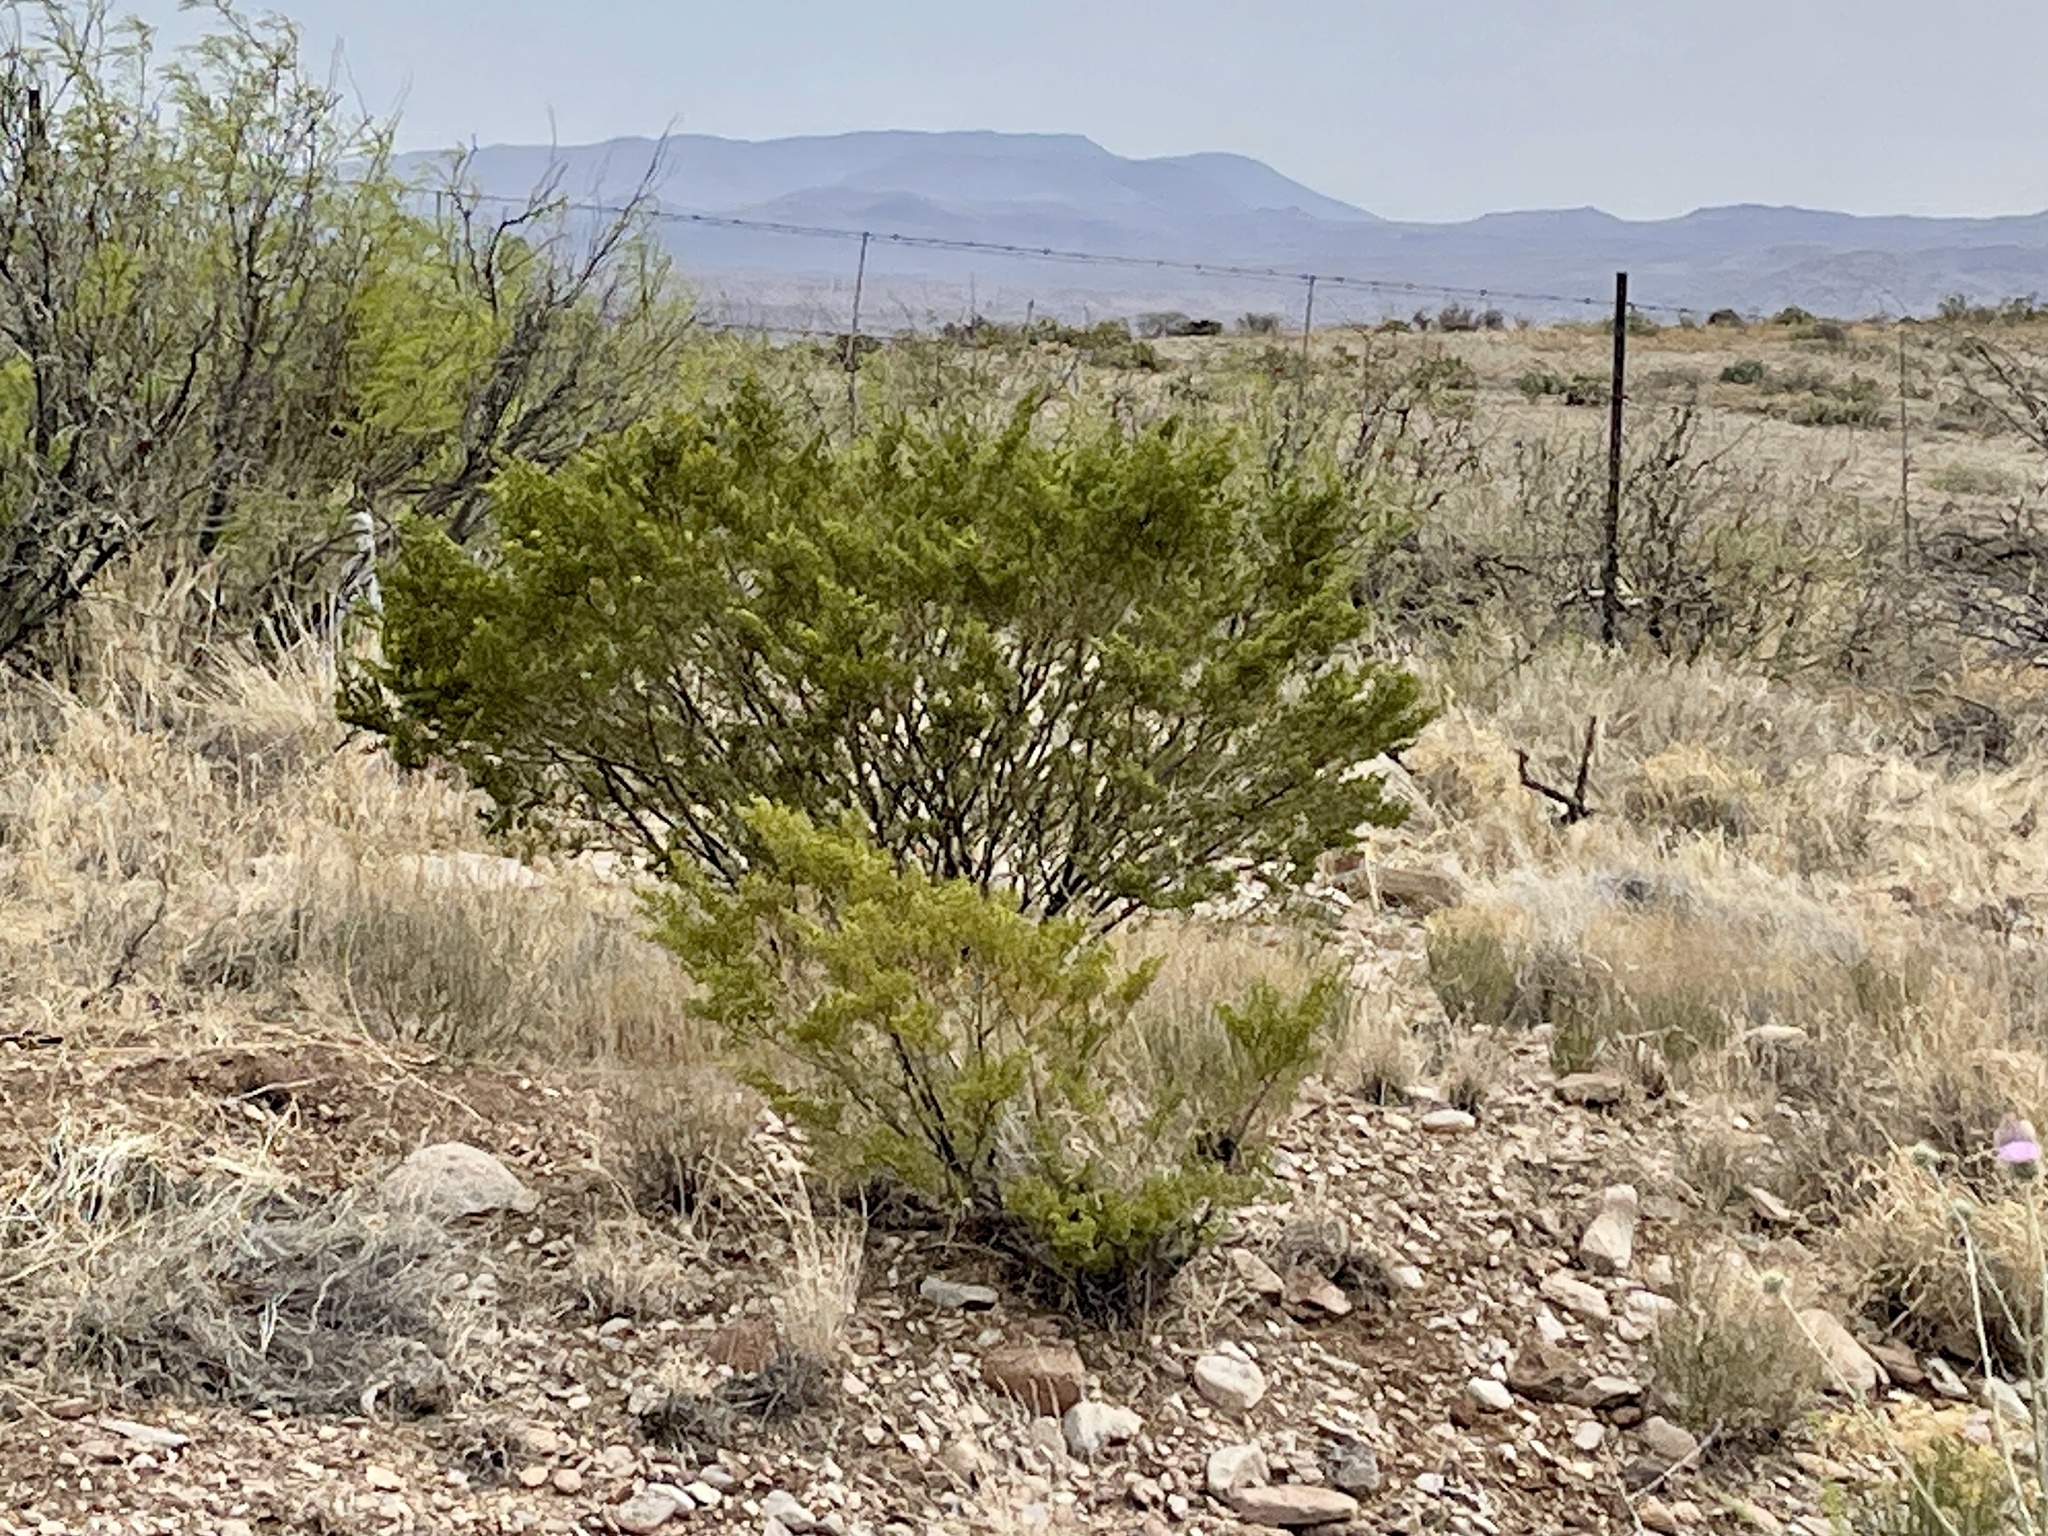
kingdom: Plantae
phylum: Tracheophyta
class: Magnoliopsida
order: Zygophyllales
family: Zygophyllaceae
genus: Larrea
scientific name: Larrea tridentata
